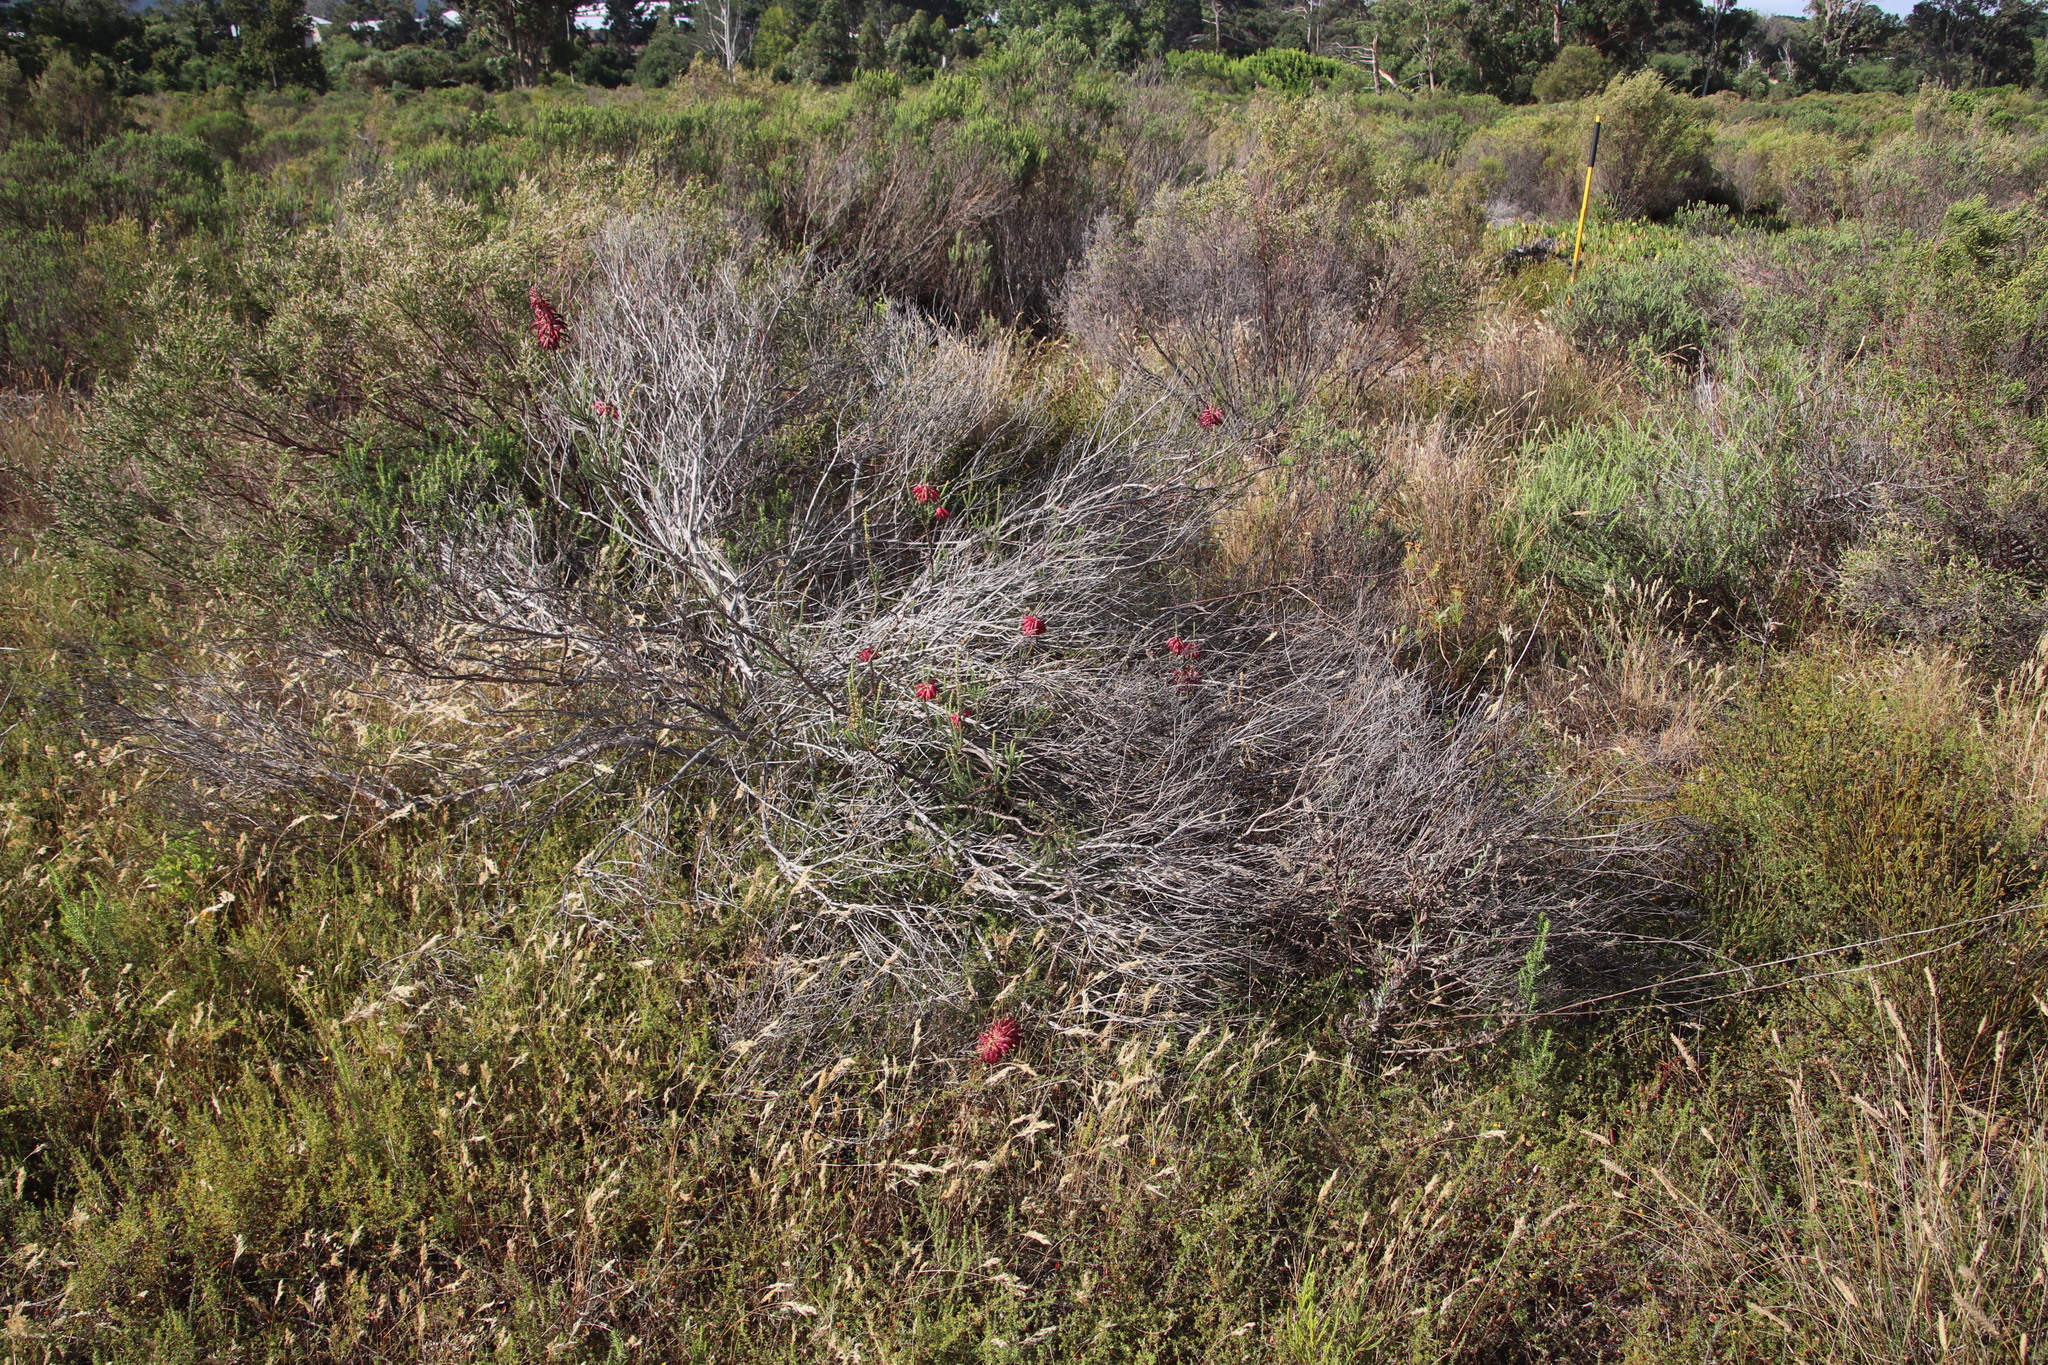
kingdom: Plantae
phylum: Tracheophyta
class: Magnoliopsida
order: Ericales
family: Ericaceae
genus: Erica
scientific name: Erica mammosa
